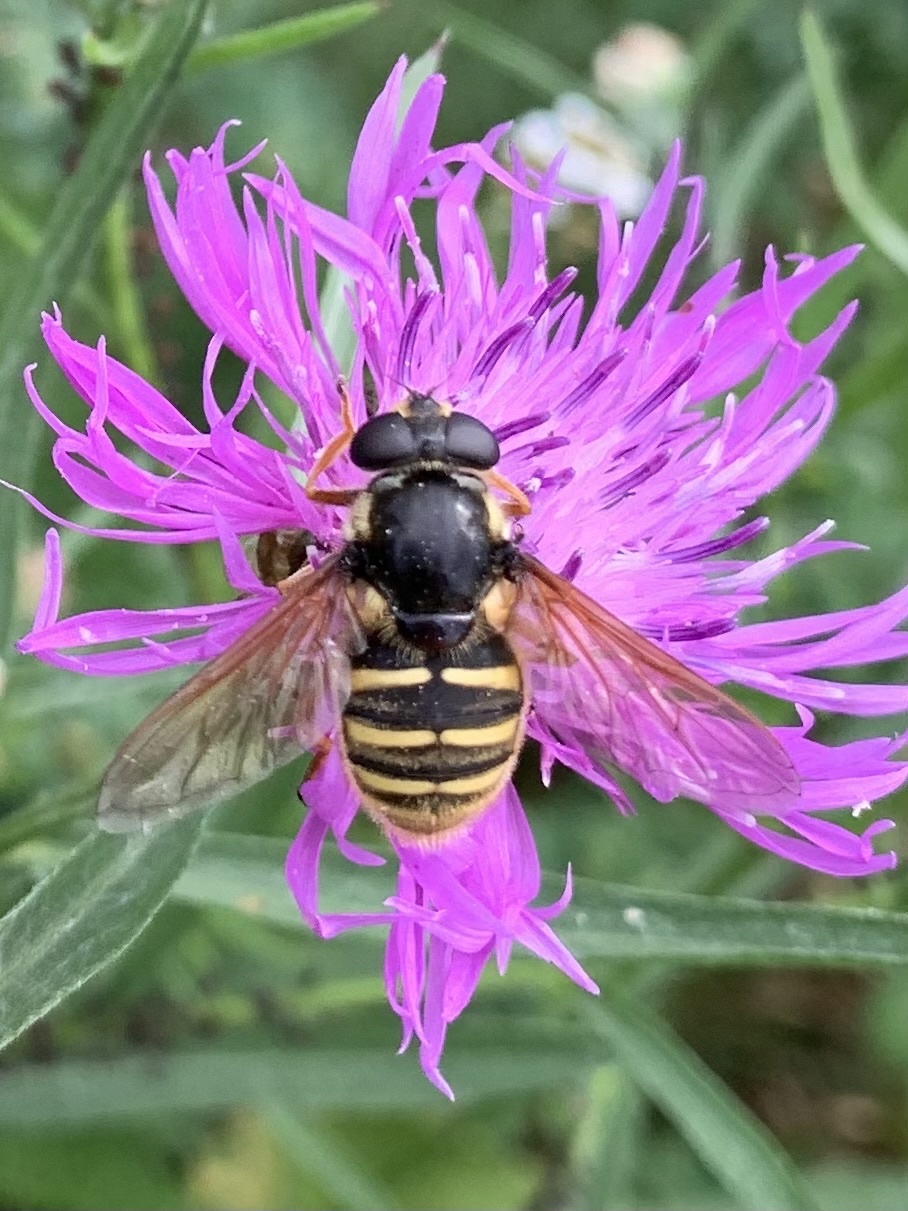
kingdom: Animalia
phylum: Arthropoda
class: Insecta
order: Diptera
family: Syrphidae
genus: Sericomyia
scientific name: Sericomyia silentis
